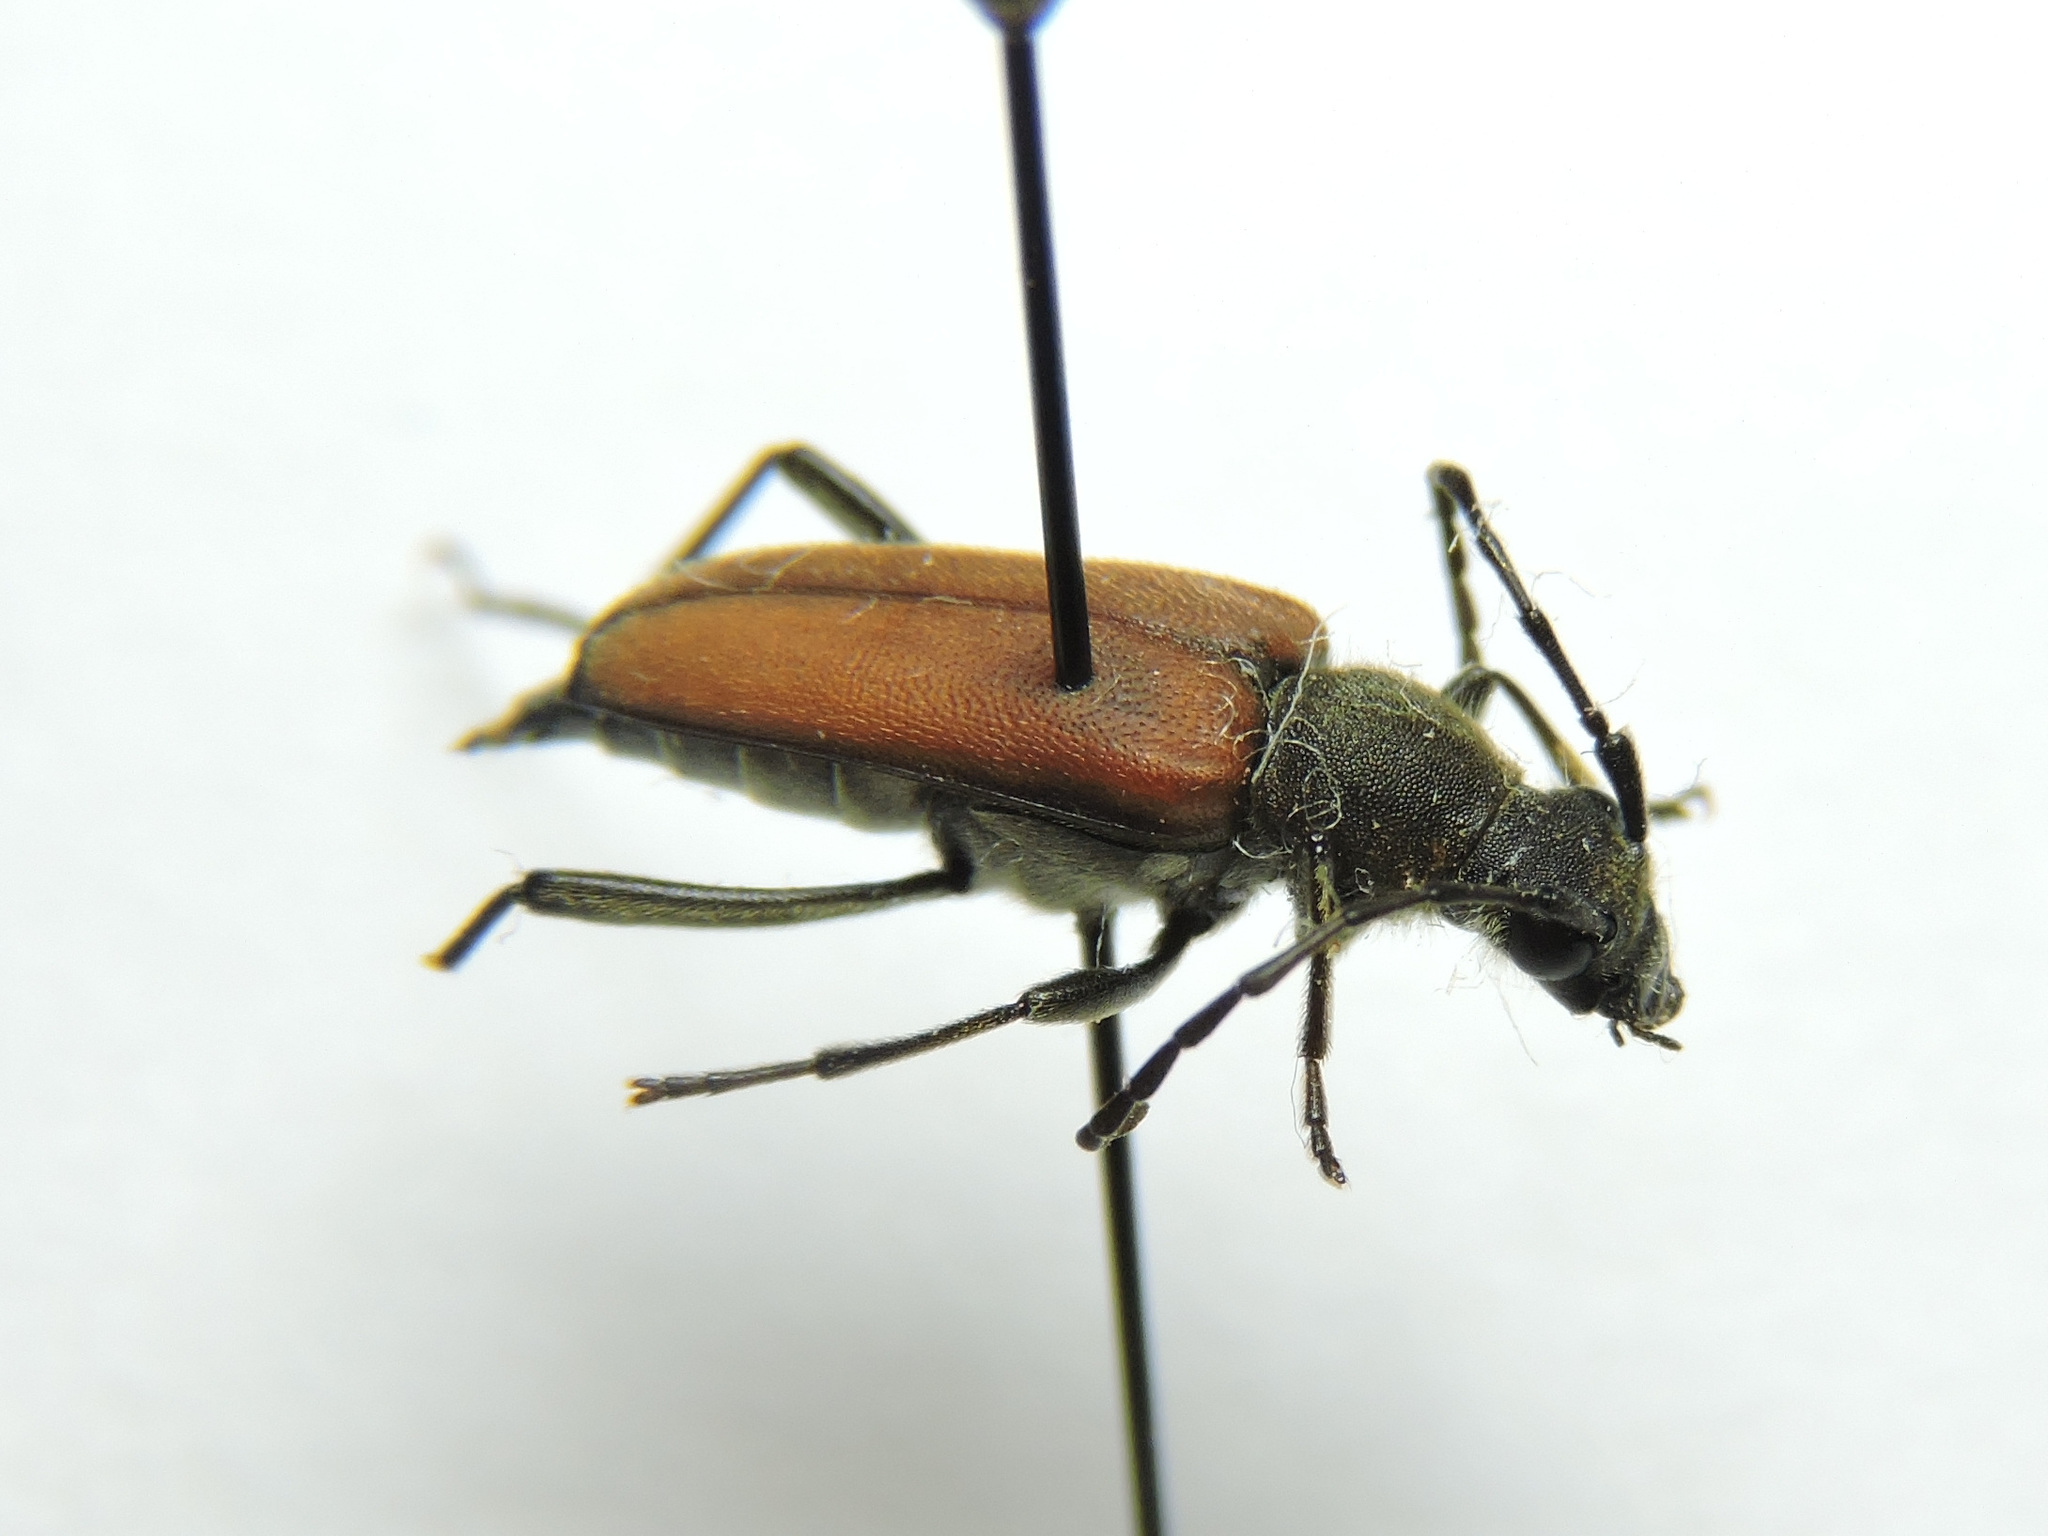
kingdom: Animalia
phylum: Arthropoda
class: Insecta
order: Coleoptera
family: Cerambycidae
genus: Anastrangalia
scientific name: Anastrangalia reyi
